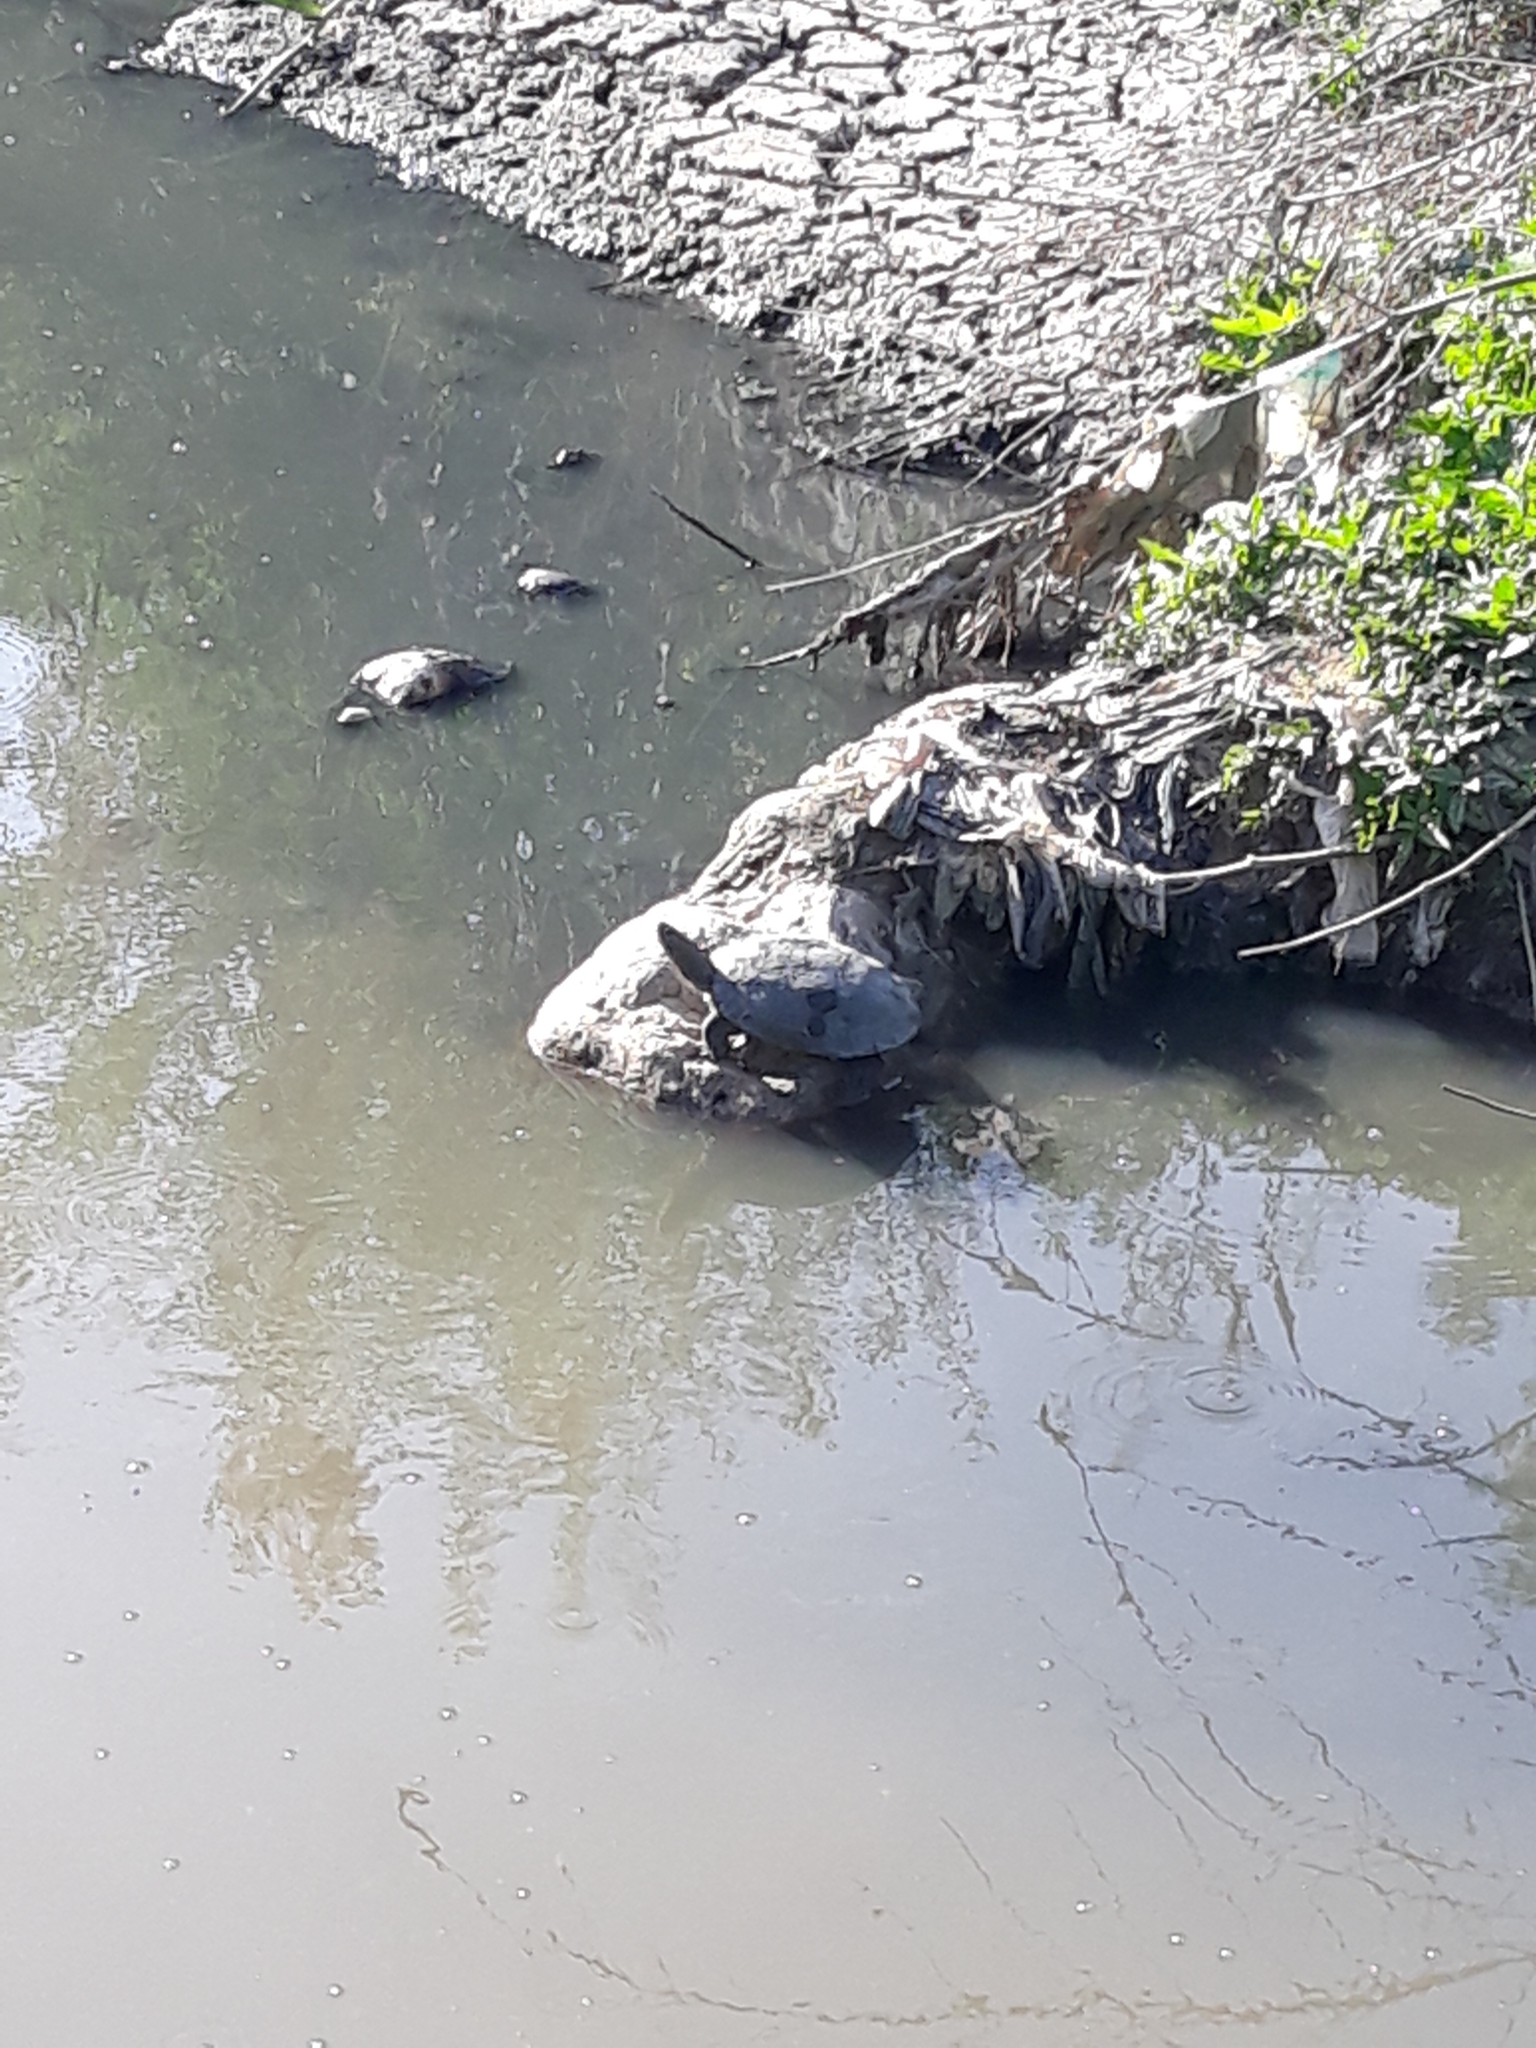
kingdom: Animalia
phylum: Chordata
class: Testudines
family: Geoemydidae
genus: Mauremys
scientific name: Mauremys leprosa
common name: Mediterranean pond turtle
